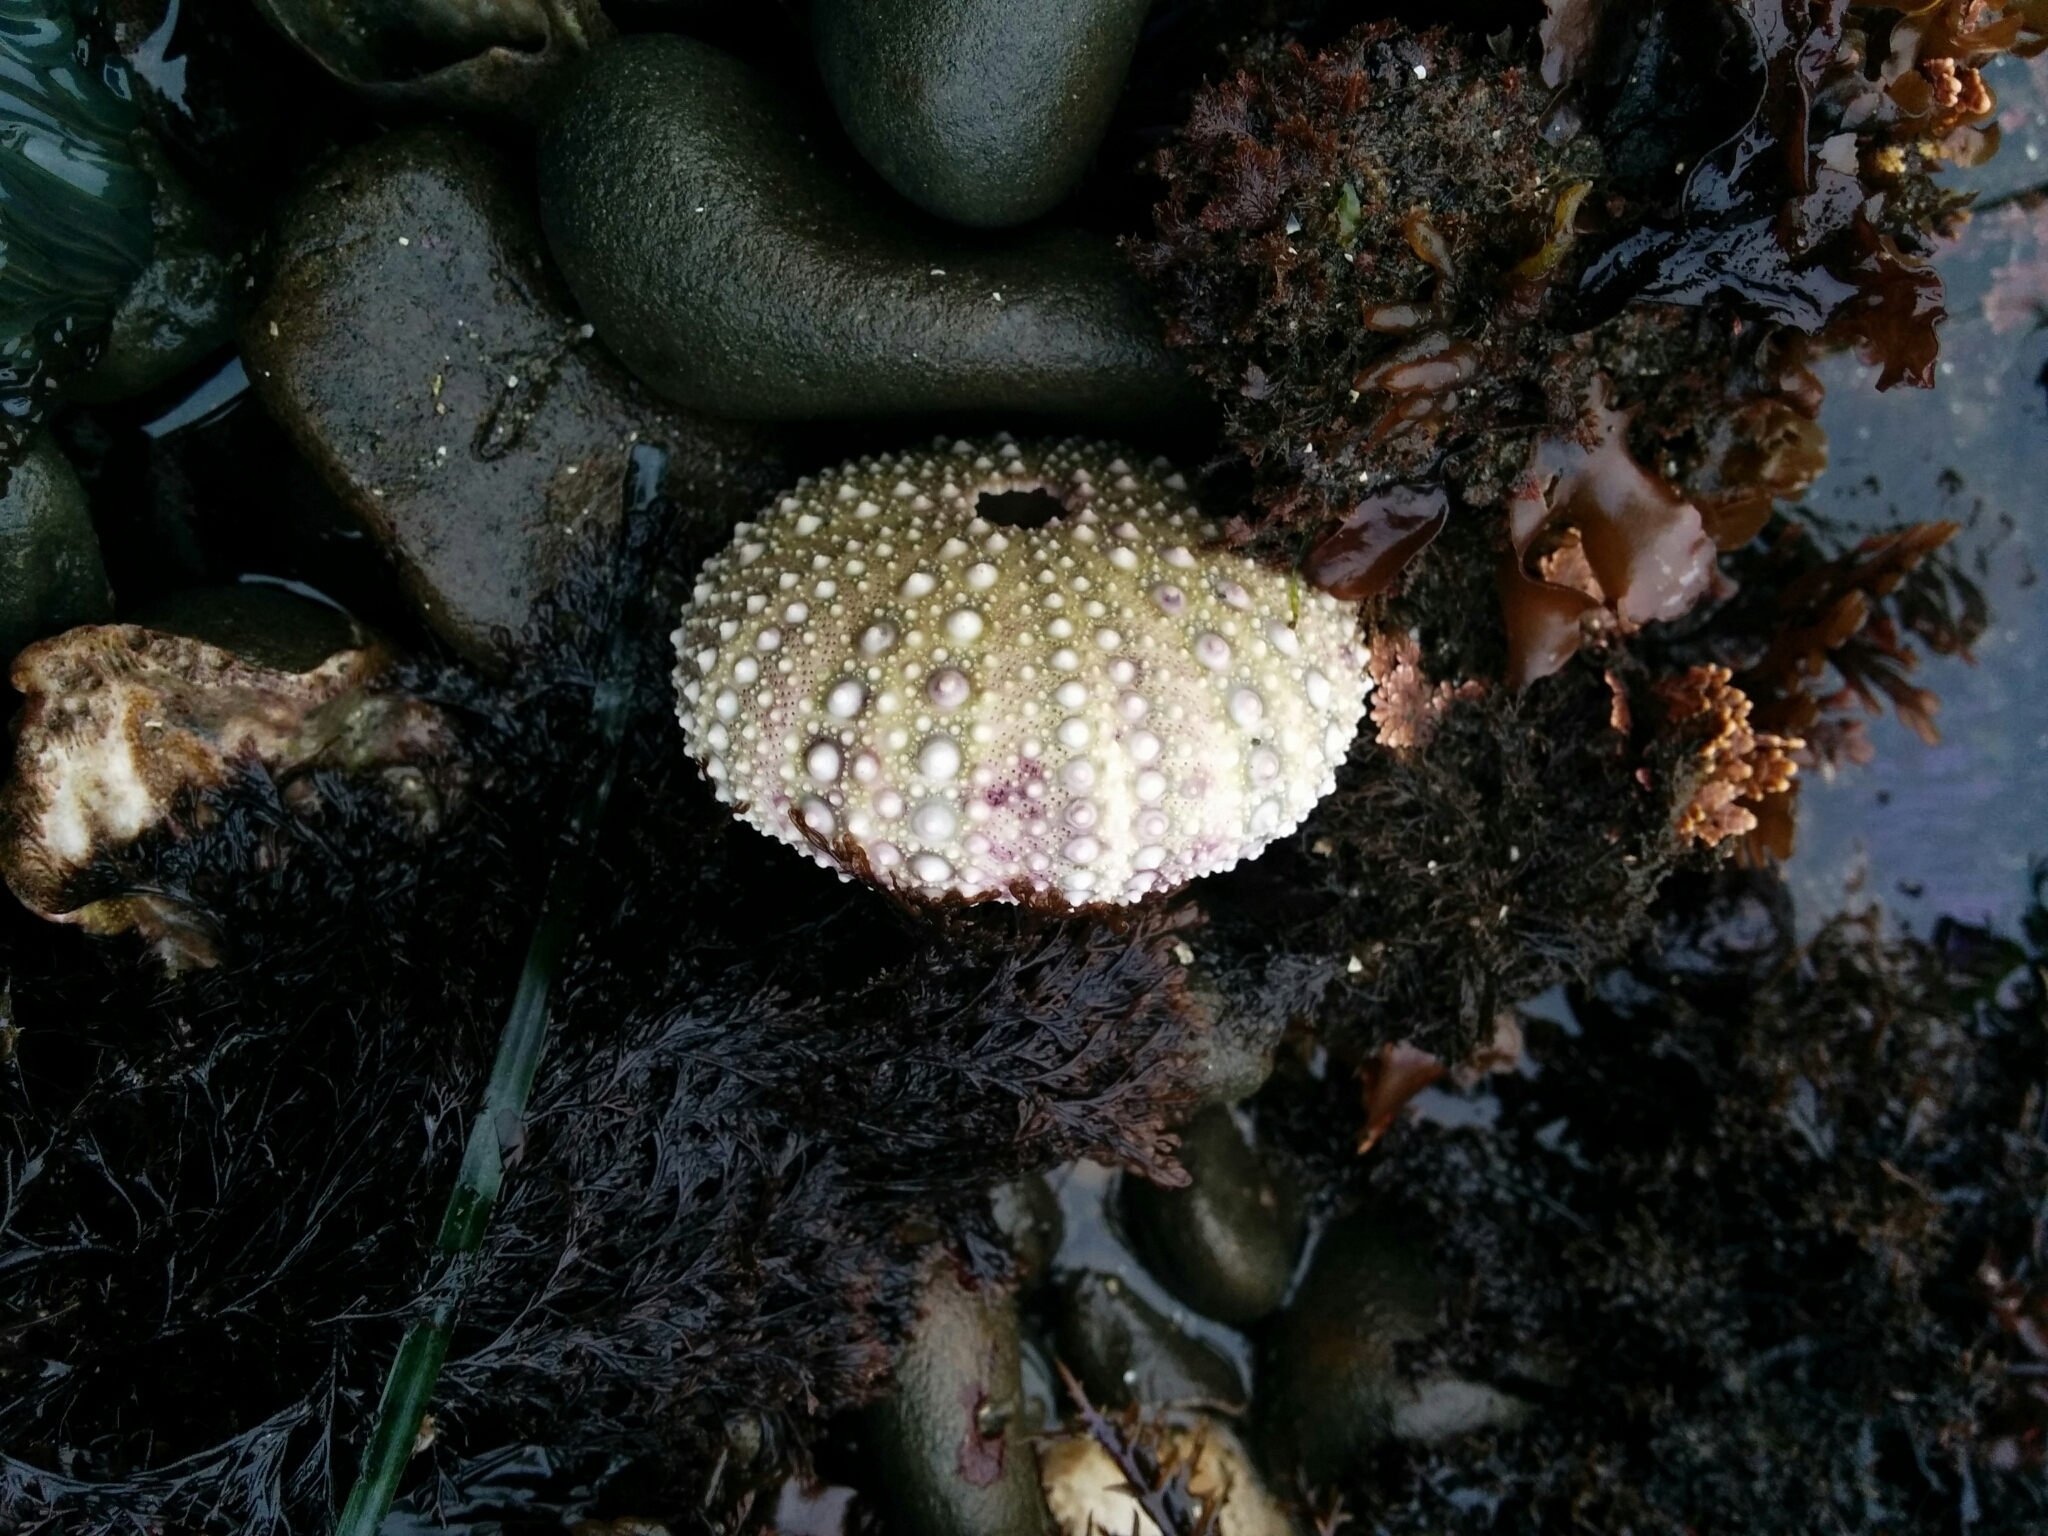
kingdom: Animalia
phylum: Echinodermata
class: Echinoidea
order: Camarodonta
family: Strongylocentrotidae
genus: Strongylocentrotus
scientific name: Strongylocentrotus purpuratus
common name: Purple sea urchin
